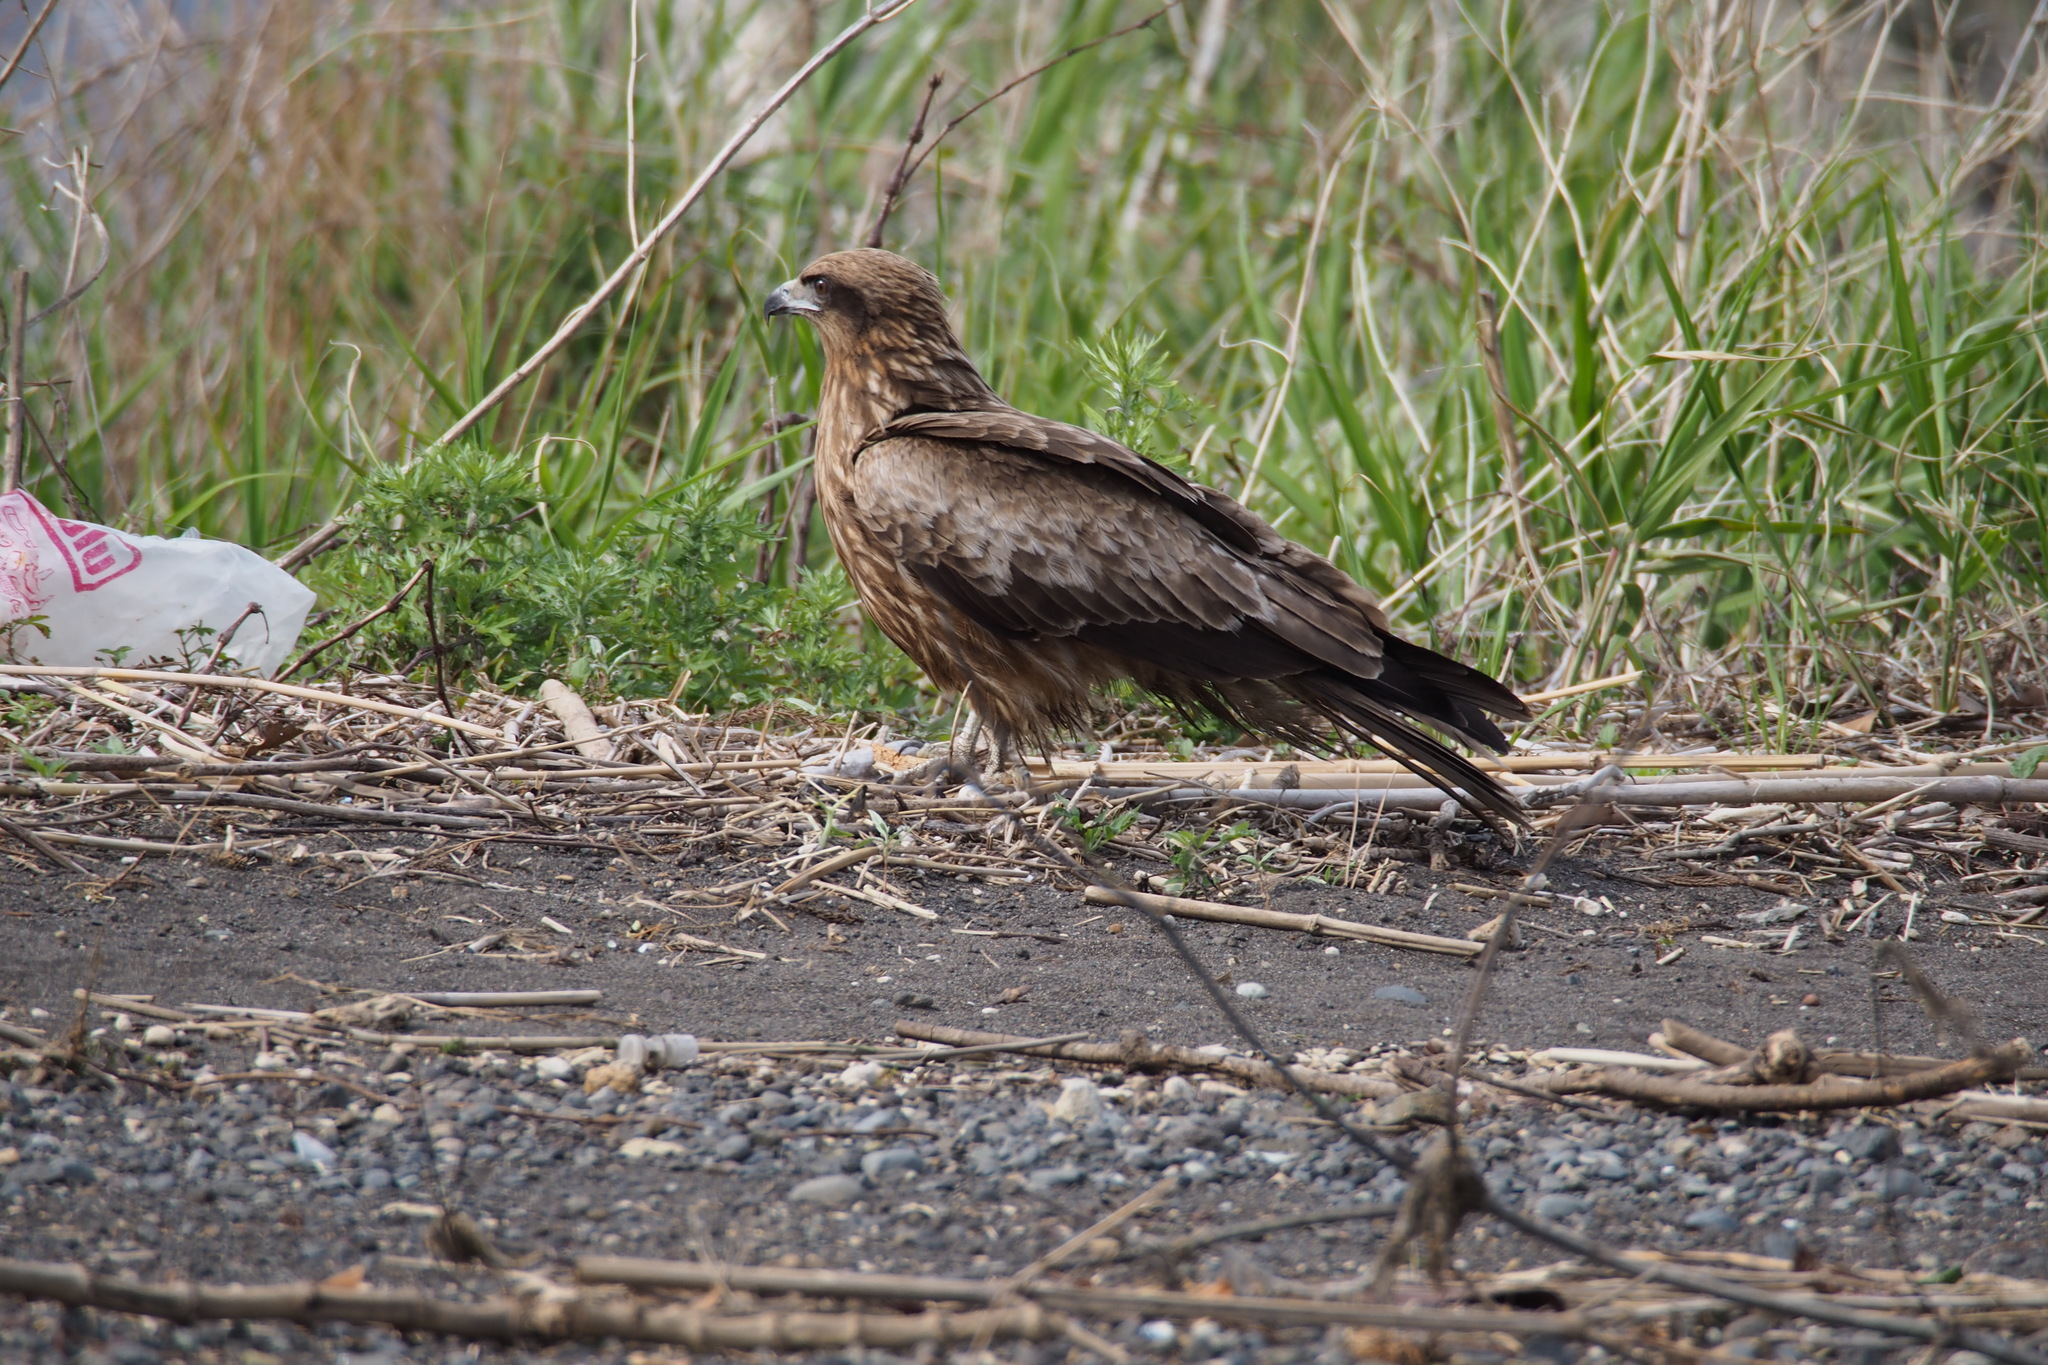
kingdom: Animalia
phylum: Chordata
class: Aves
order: Accipitriformes
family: Accipitridae
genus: Milvus
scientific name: Milvus migrans
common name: Black kite
